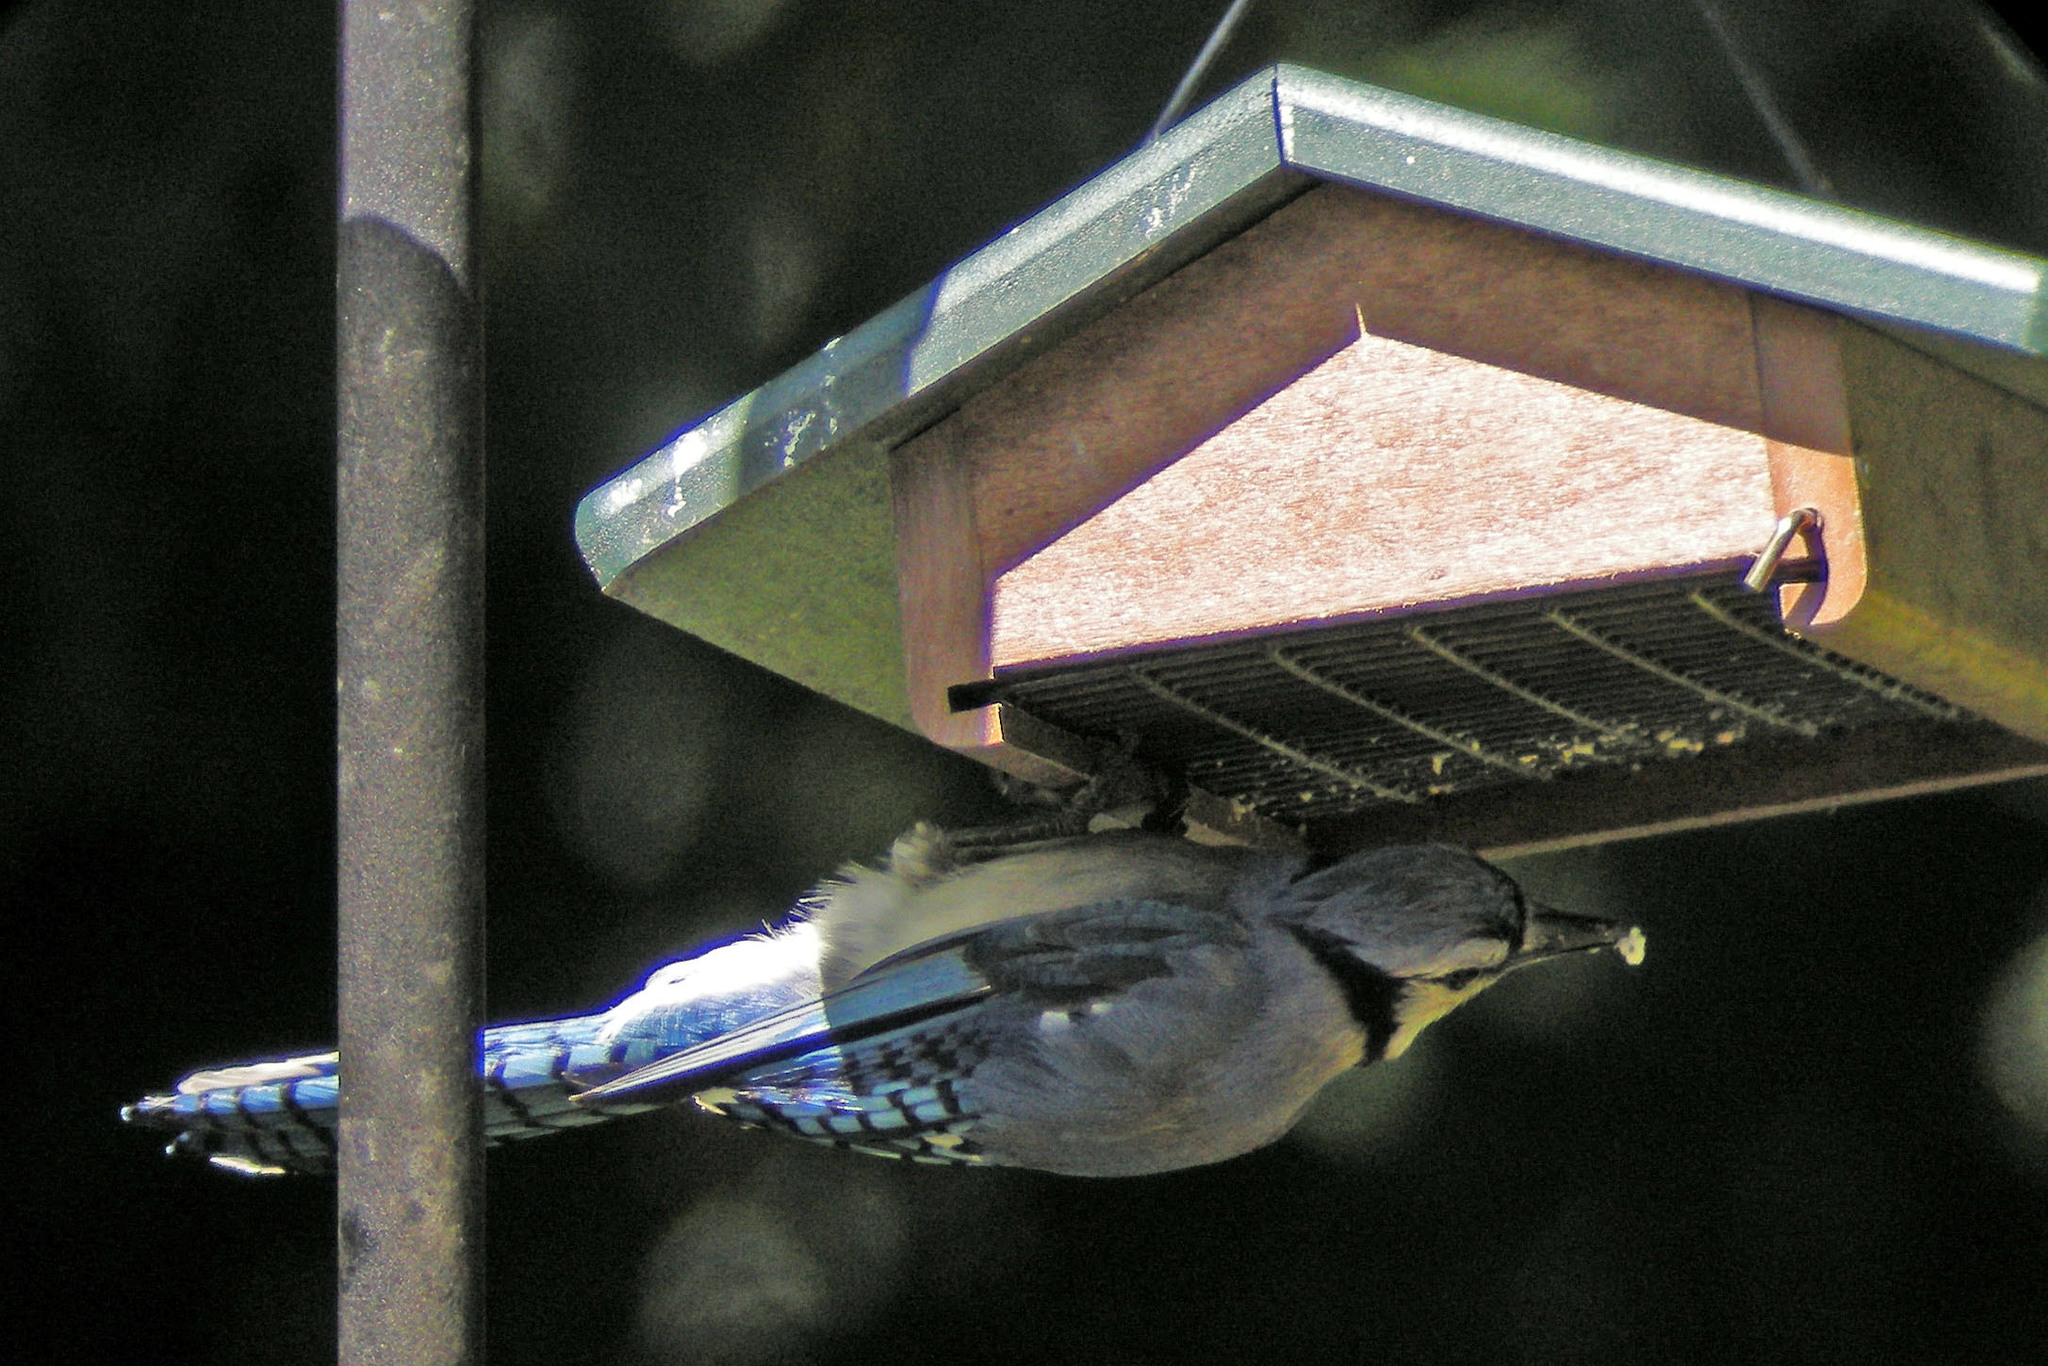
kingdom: Animalia
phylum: Chordata
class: Aves
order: Passeriformes
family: Corvidae
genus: Cyanocitta
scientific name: Cyanocitta cristata
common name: Blue jay
